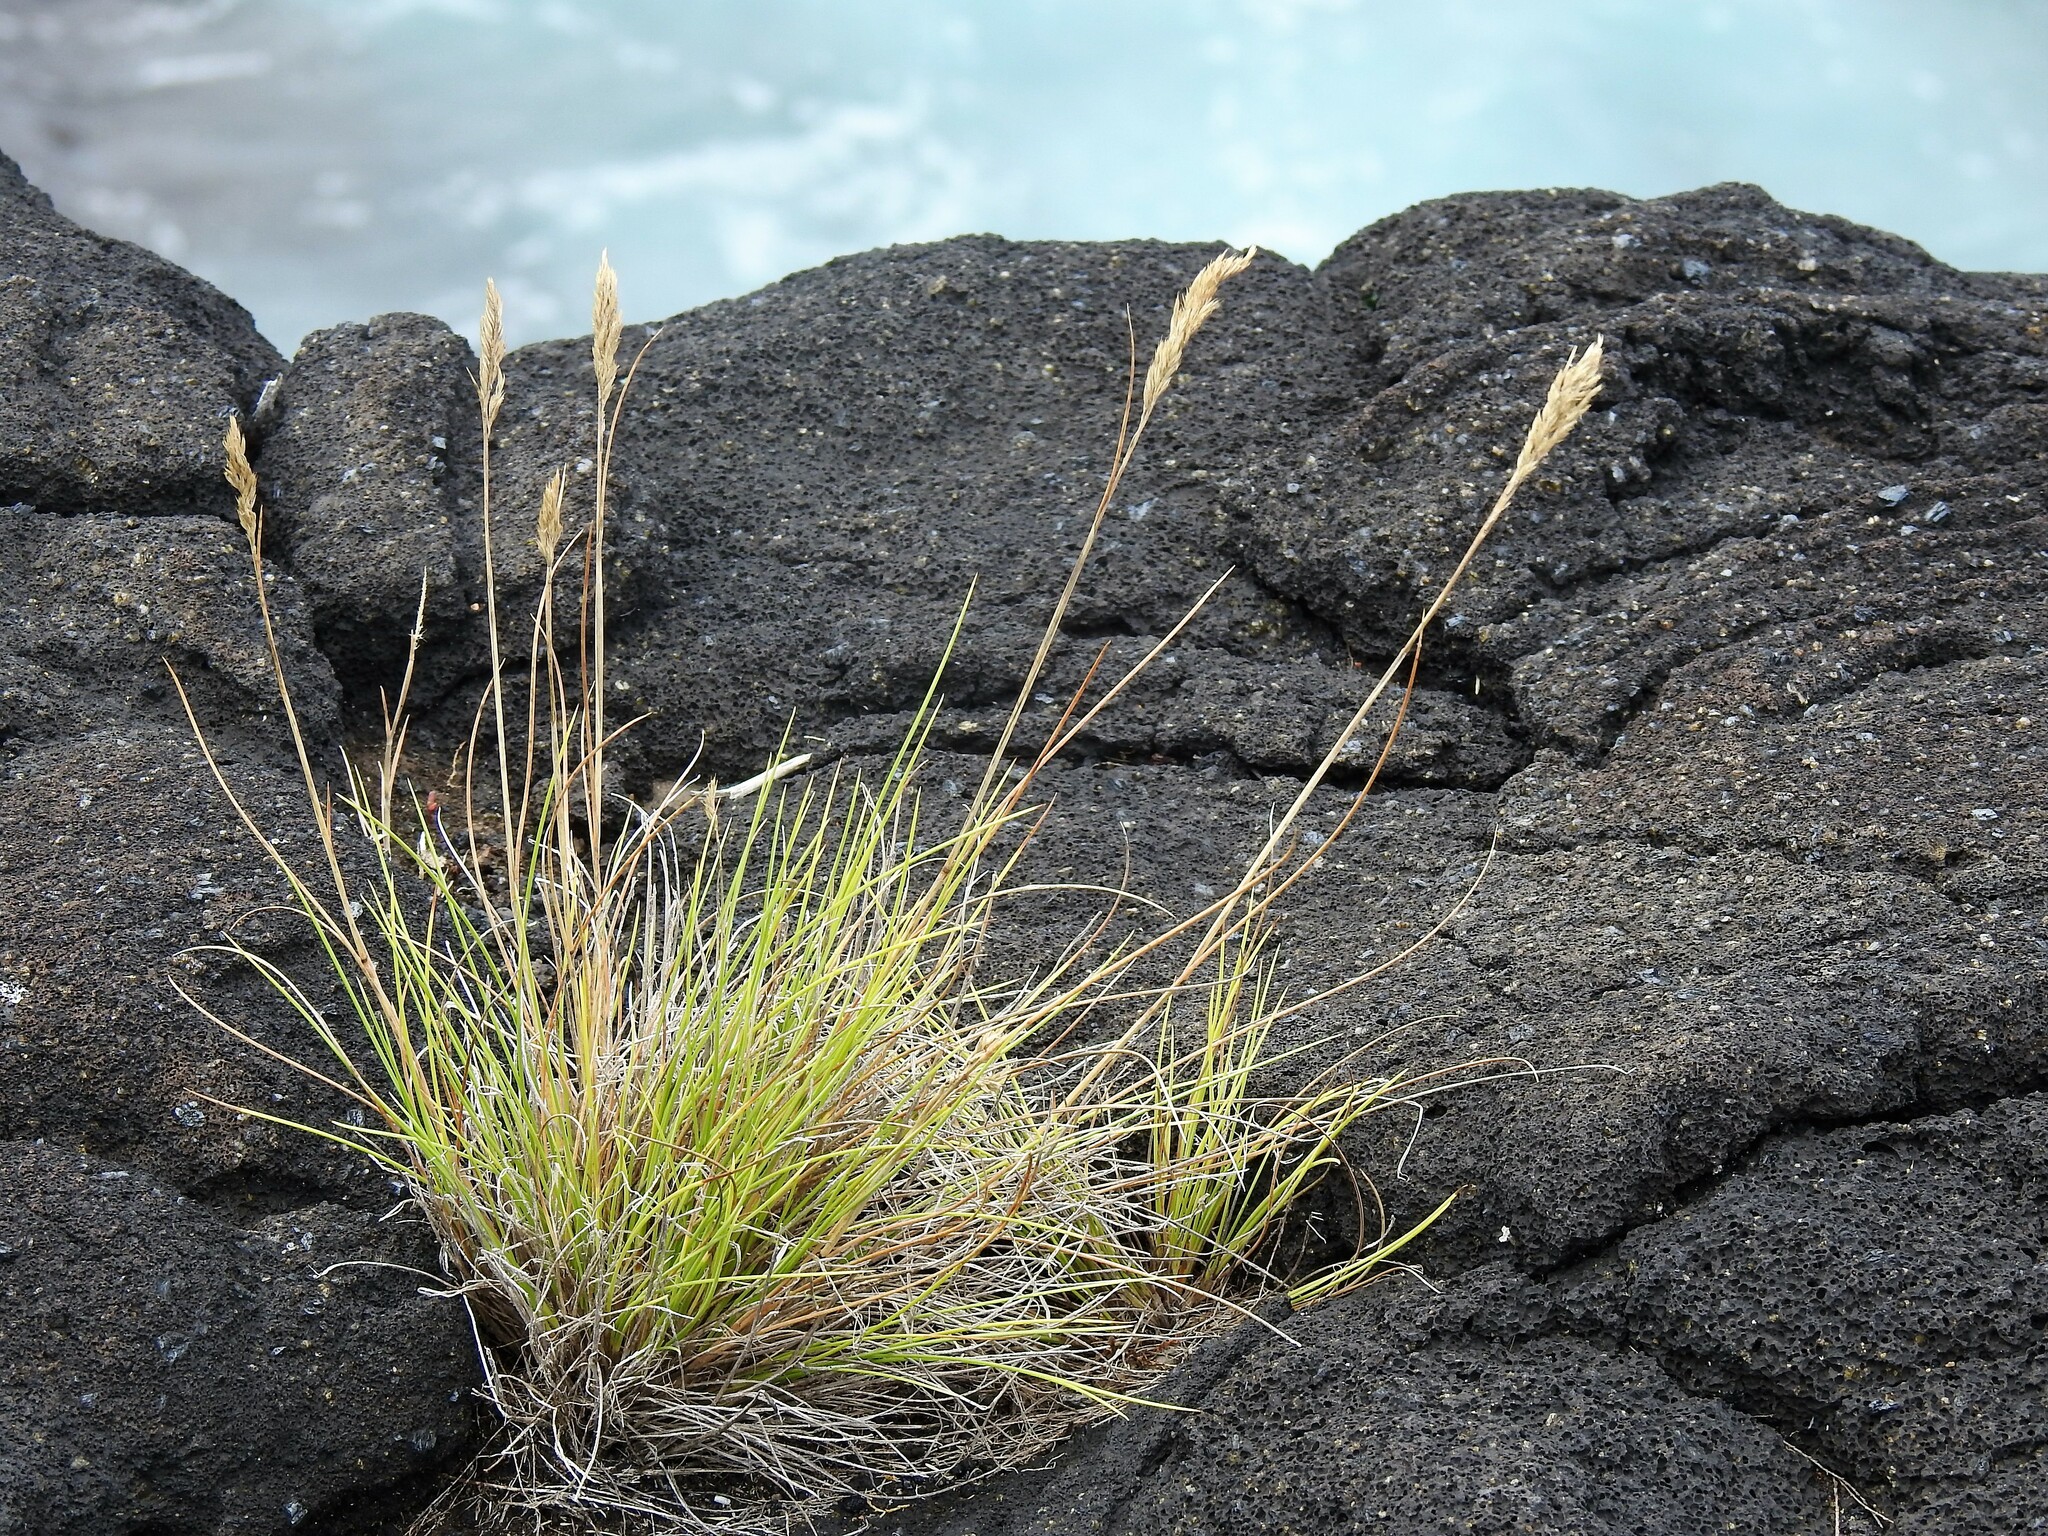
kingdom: Plantae
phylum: Tracheophyta
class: Liliopsida
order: Poales
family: Poaceae
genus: Festuca
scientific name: Festuca petraea
